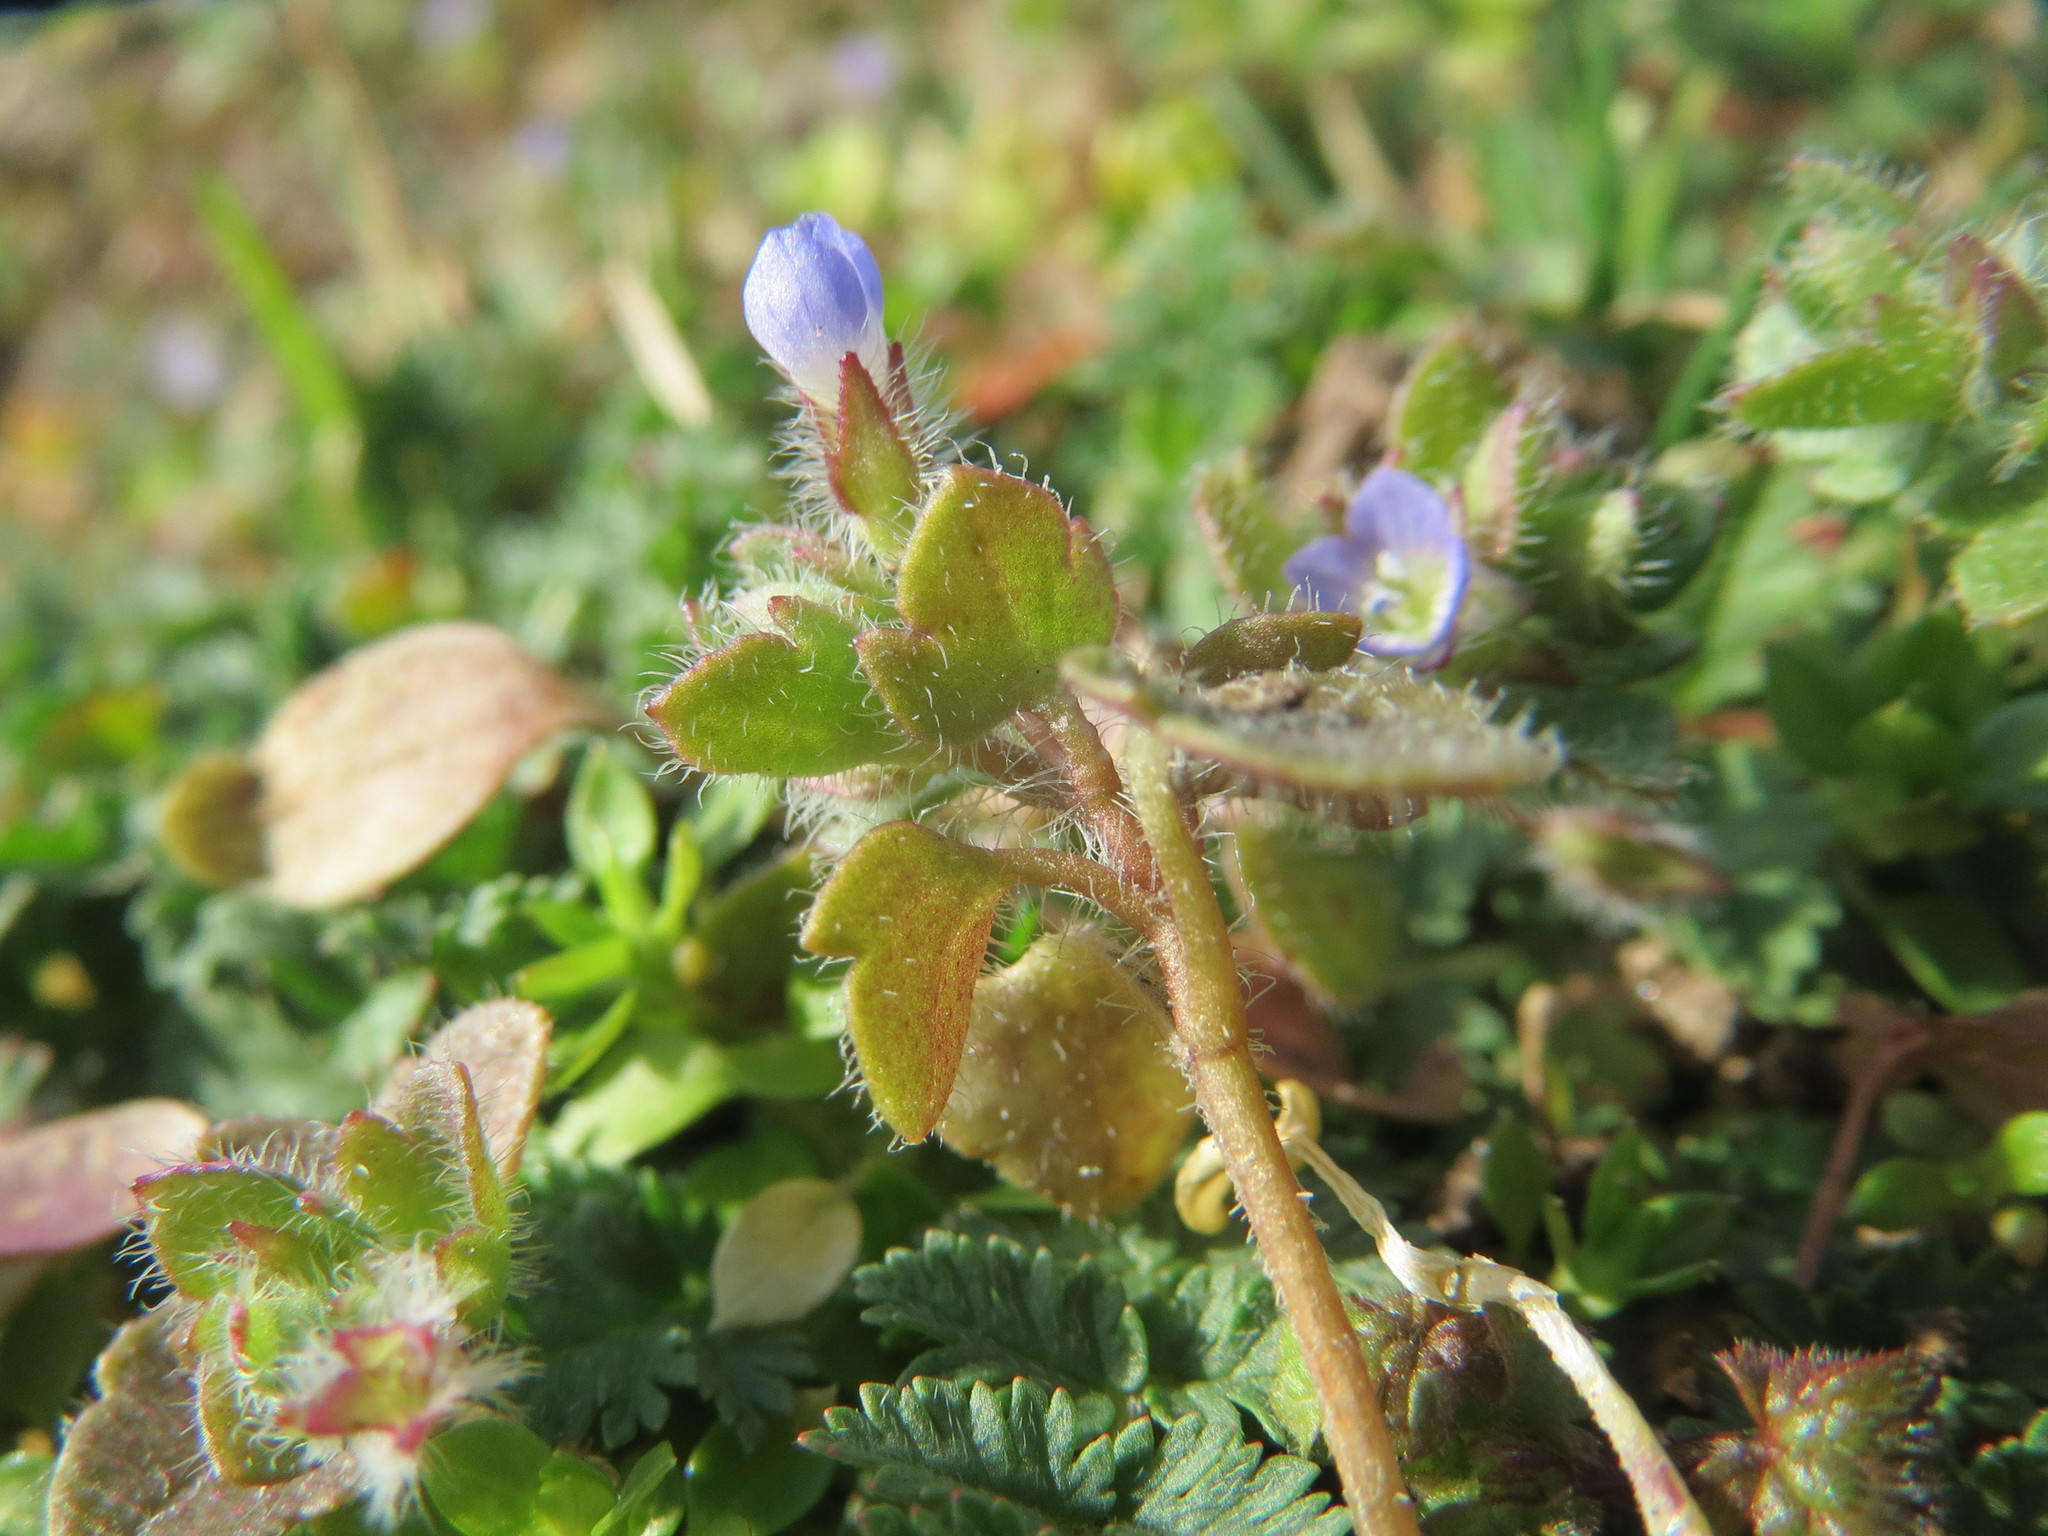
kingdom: Plantae
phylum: Tracheophyta
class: Magnoliopsida
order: Lamiales
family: Plantaginaceae
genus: Veronica
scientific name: Veronica hederifolia
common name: Ivy-leaved speedwell
